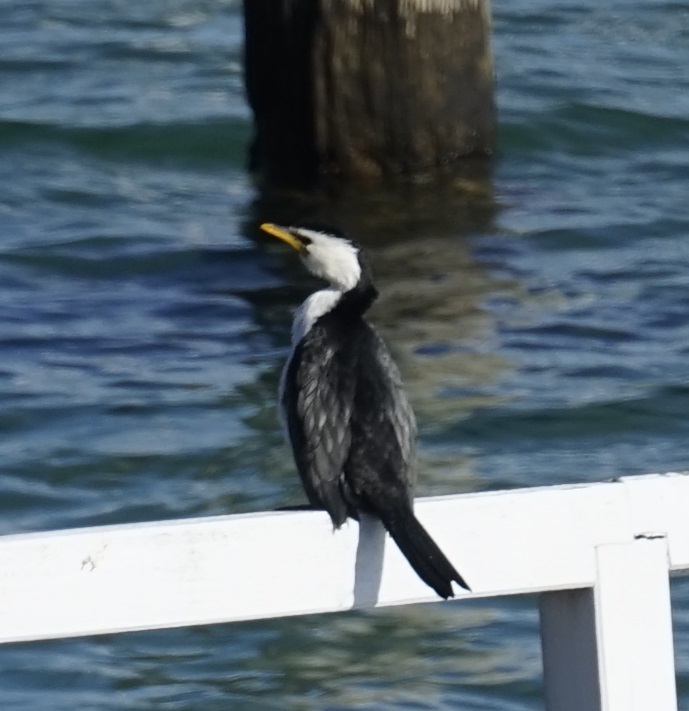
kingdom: Animalia
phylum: Chordata
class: Aves
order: Suliformes
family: Phalacrocoracidae
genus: Microcarbo
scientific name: Microcarbo melanoleucos
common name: Little pied cormorant
